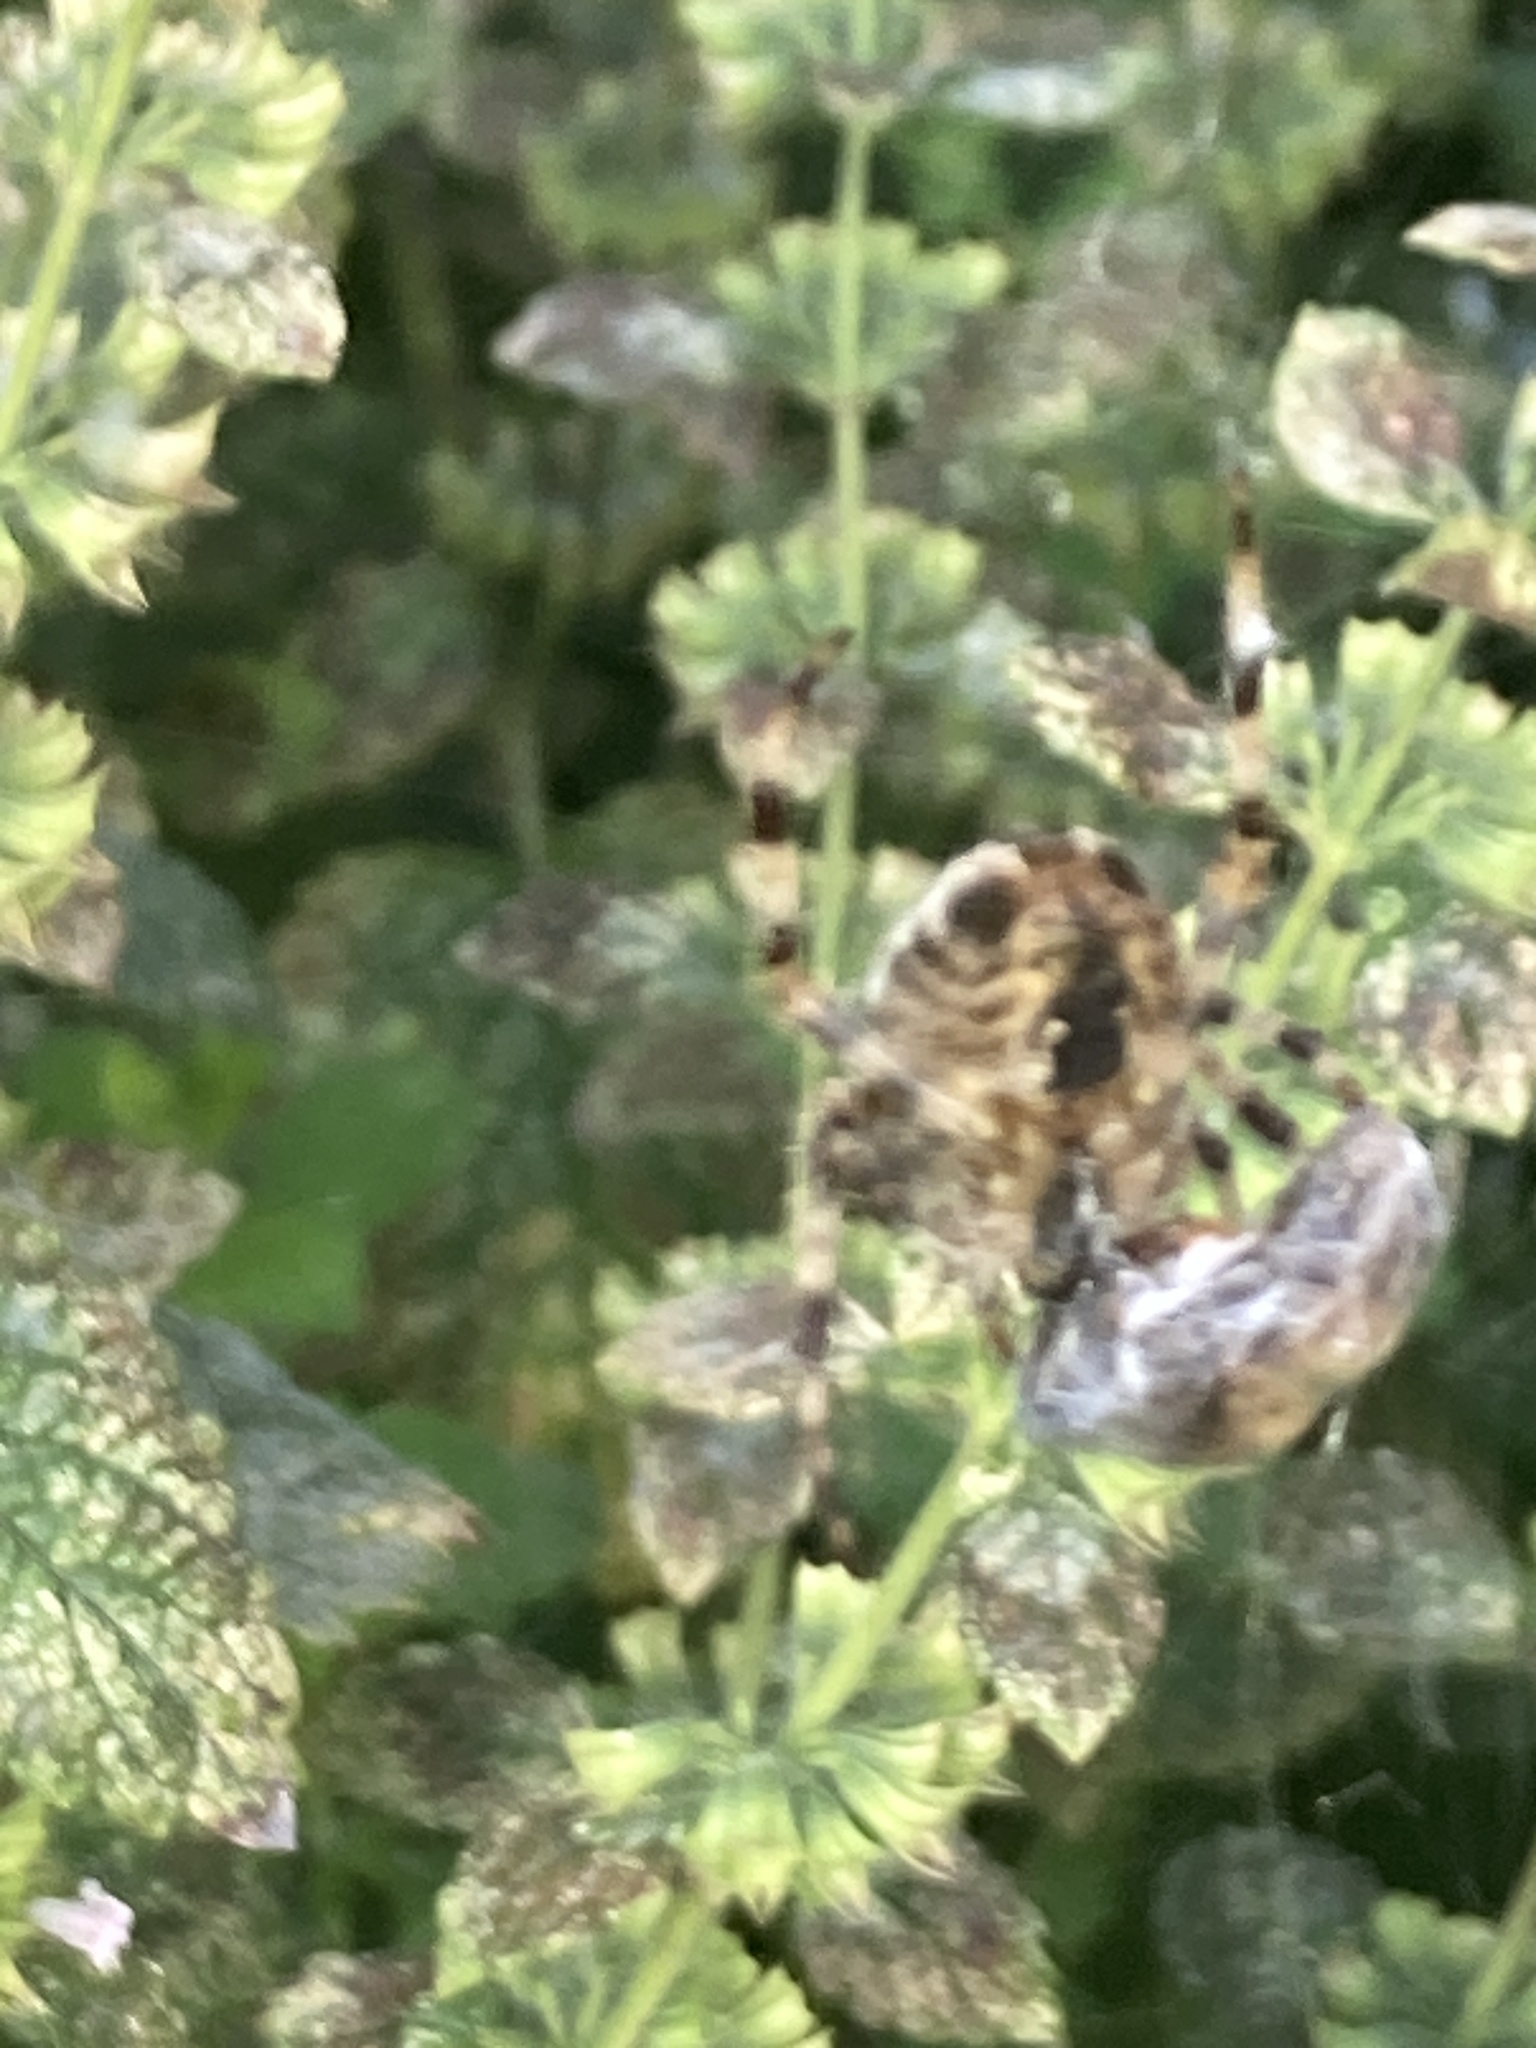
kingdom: Animalia
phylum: Arthropoda
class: Arachnida
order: Araneae
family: Araneidae
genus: Araneus
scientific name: Araneus diadematus
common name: Cross orbweaver
